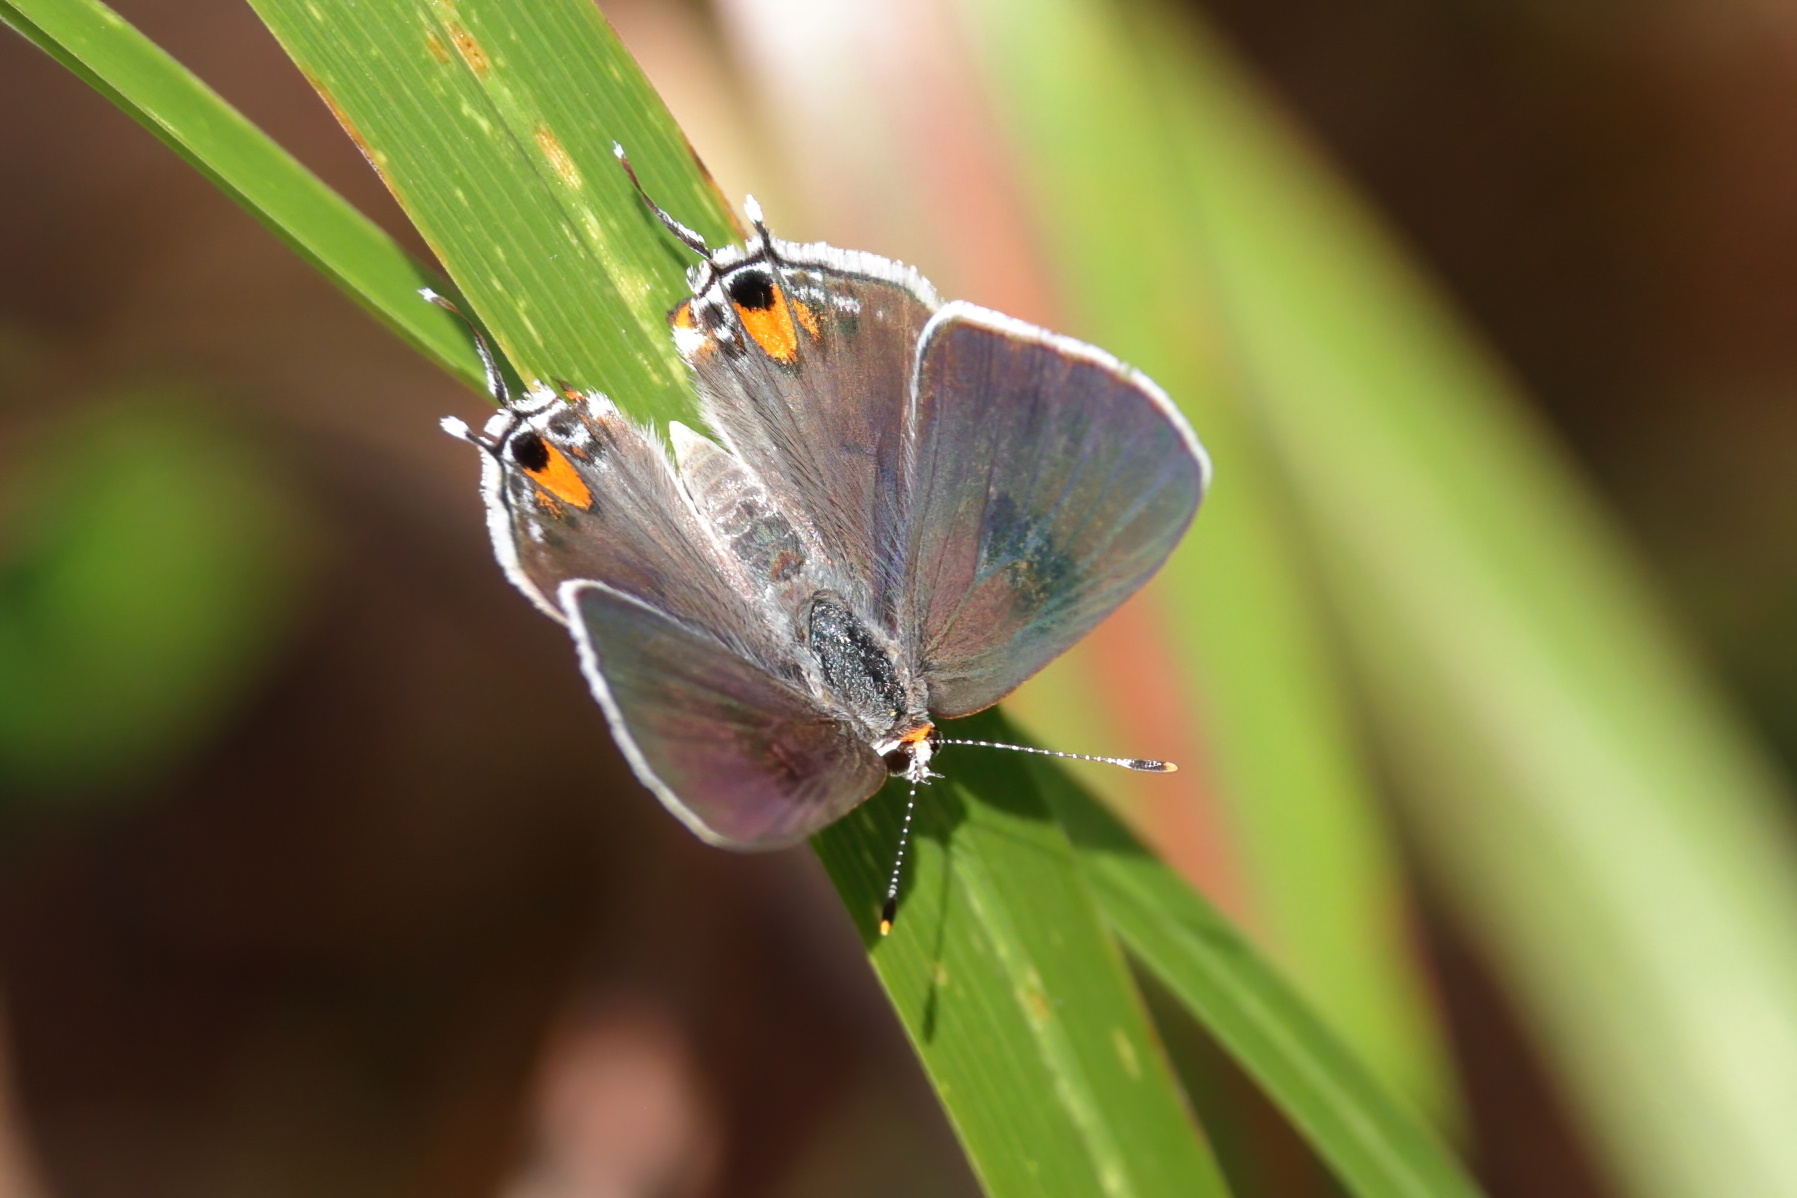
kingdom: Animalia
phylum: Arthropoda
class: Insecta
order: Lepidoptera
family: Lycaenidae
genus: Strymon
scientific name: Strymon melinus
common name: Gray hairstreak
